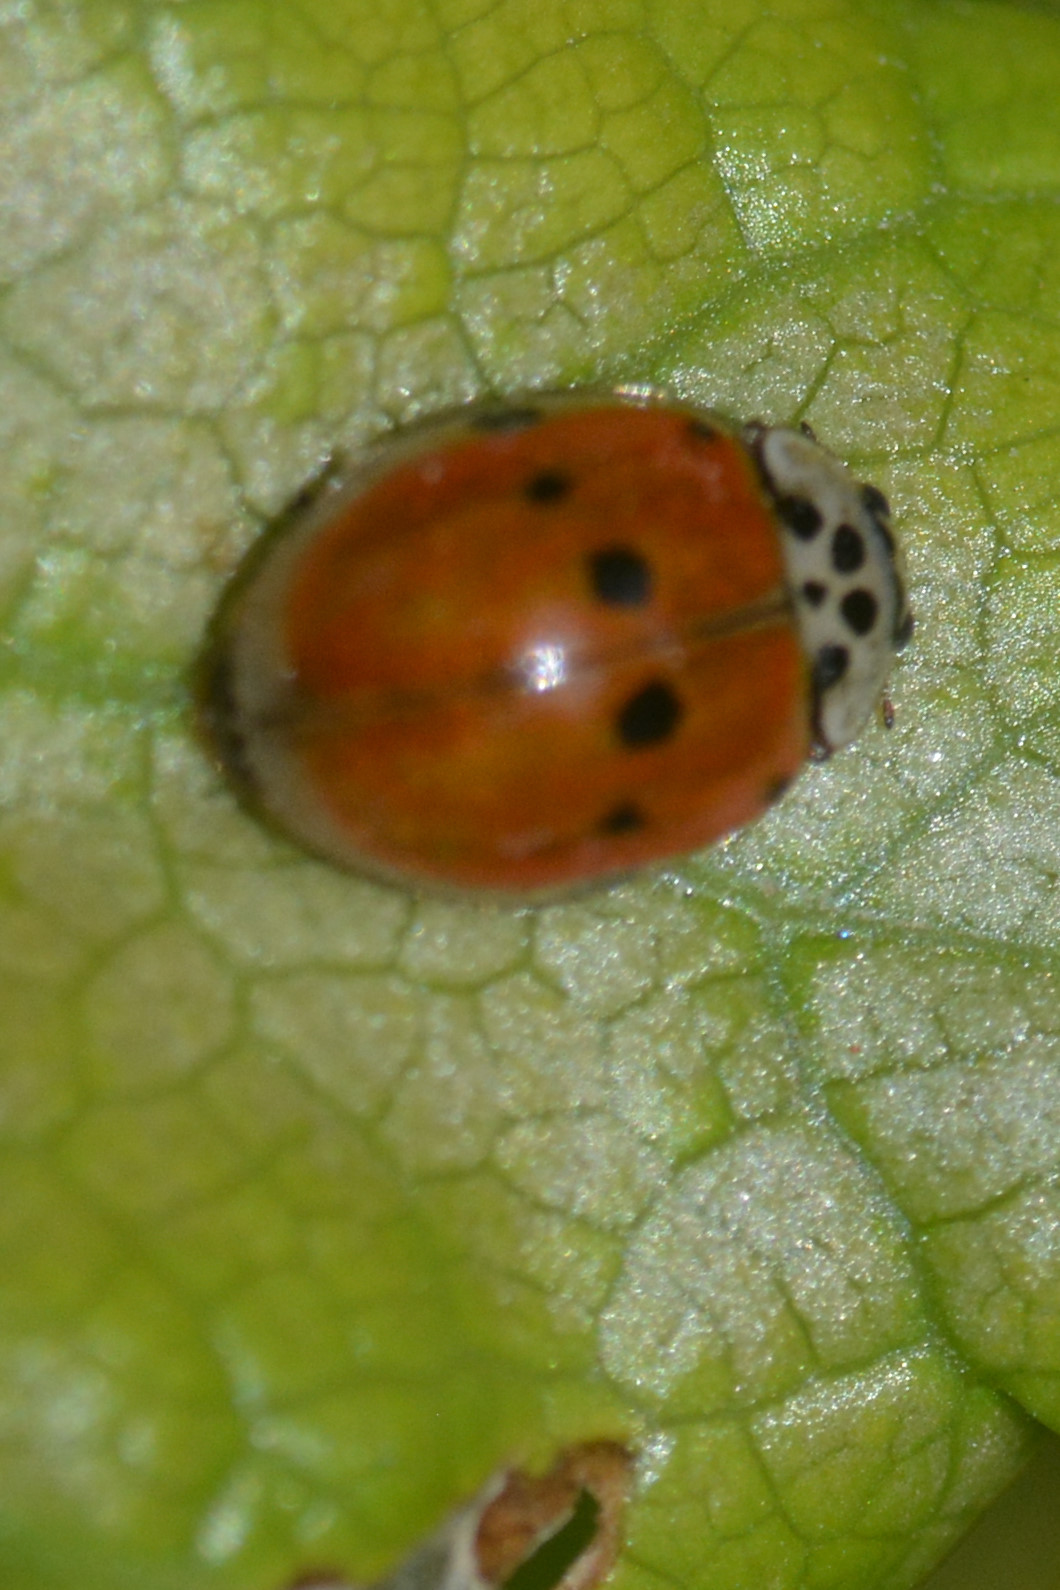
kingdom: Animalia
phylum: Arthropoda
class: Insecta
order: Coleoptera
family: Coccinellidae
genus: Adalia
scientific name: Adalia decempunctata
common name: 10-spot ladybird
